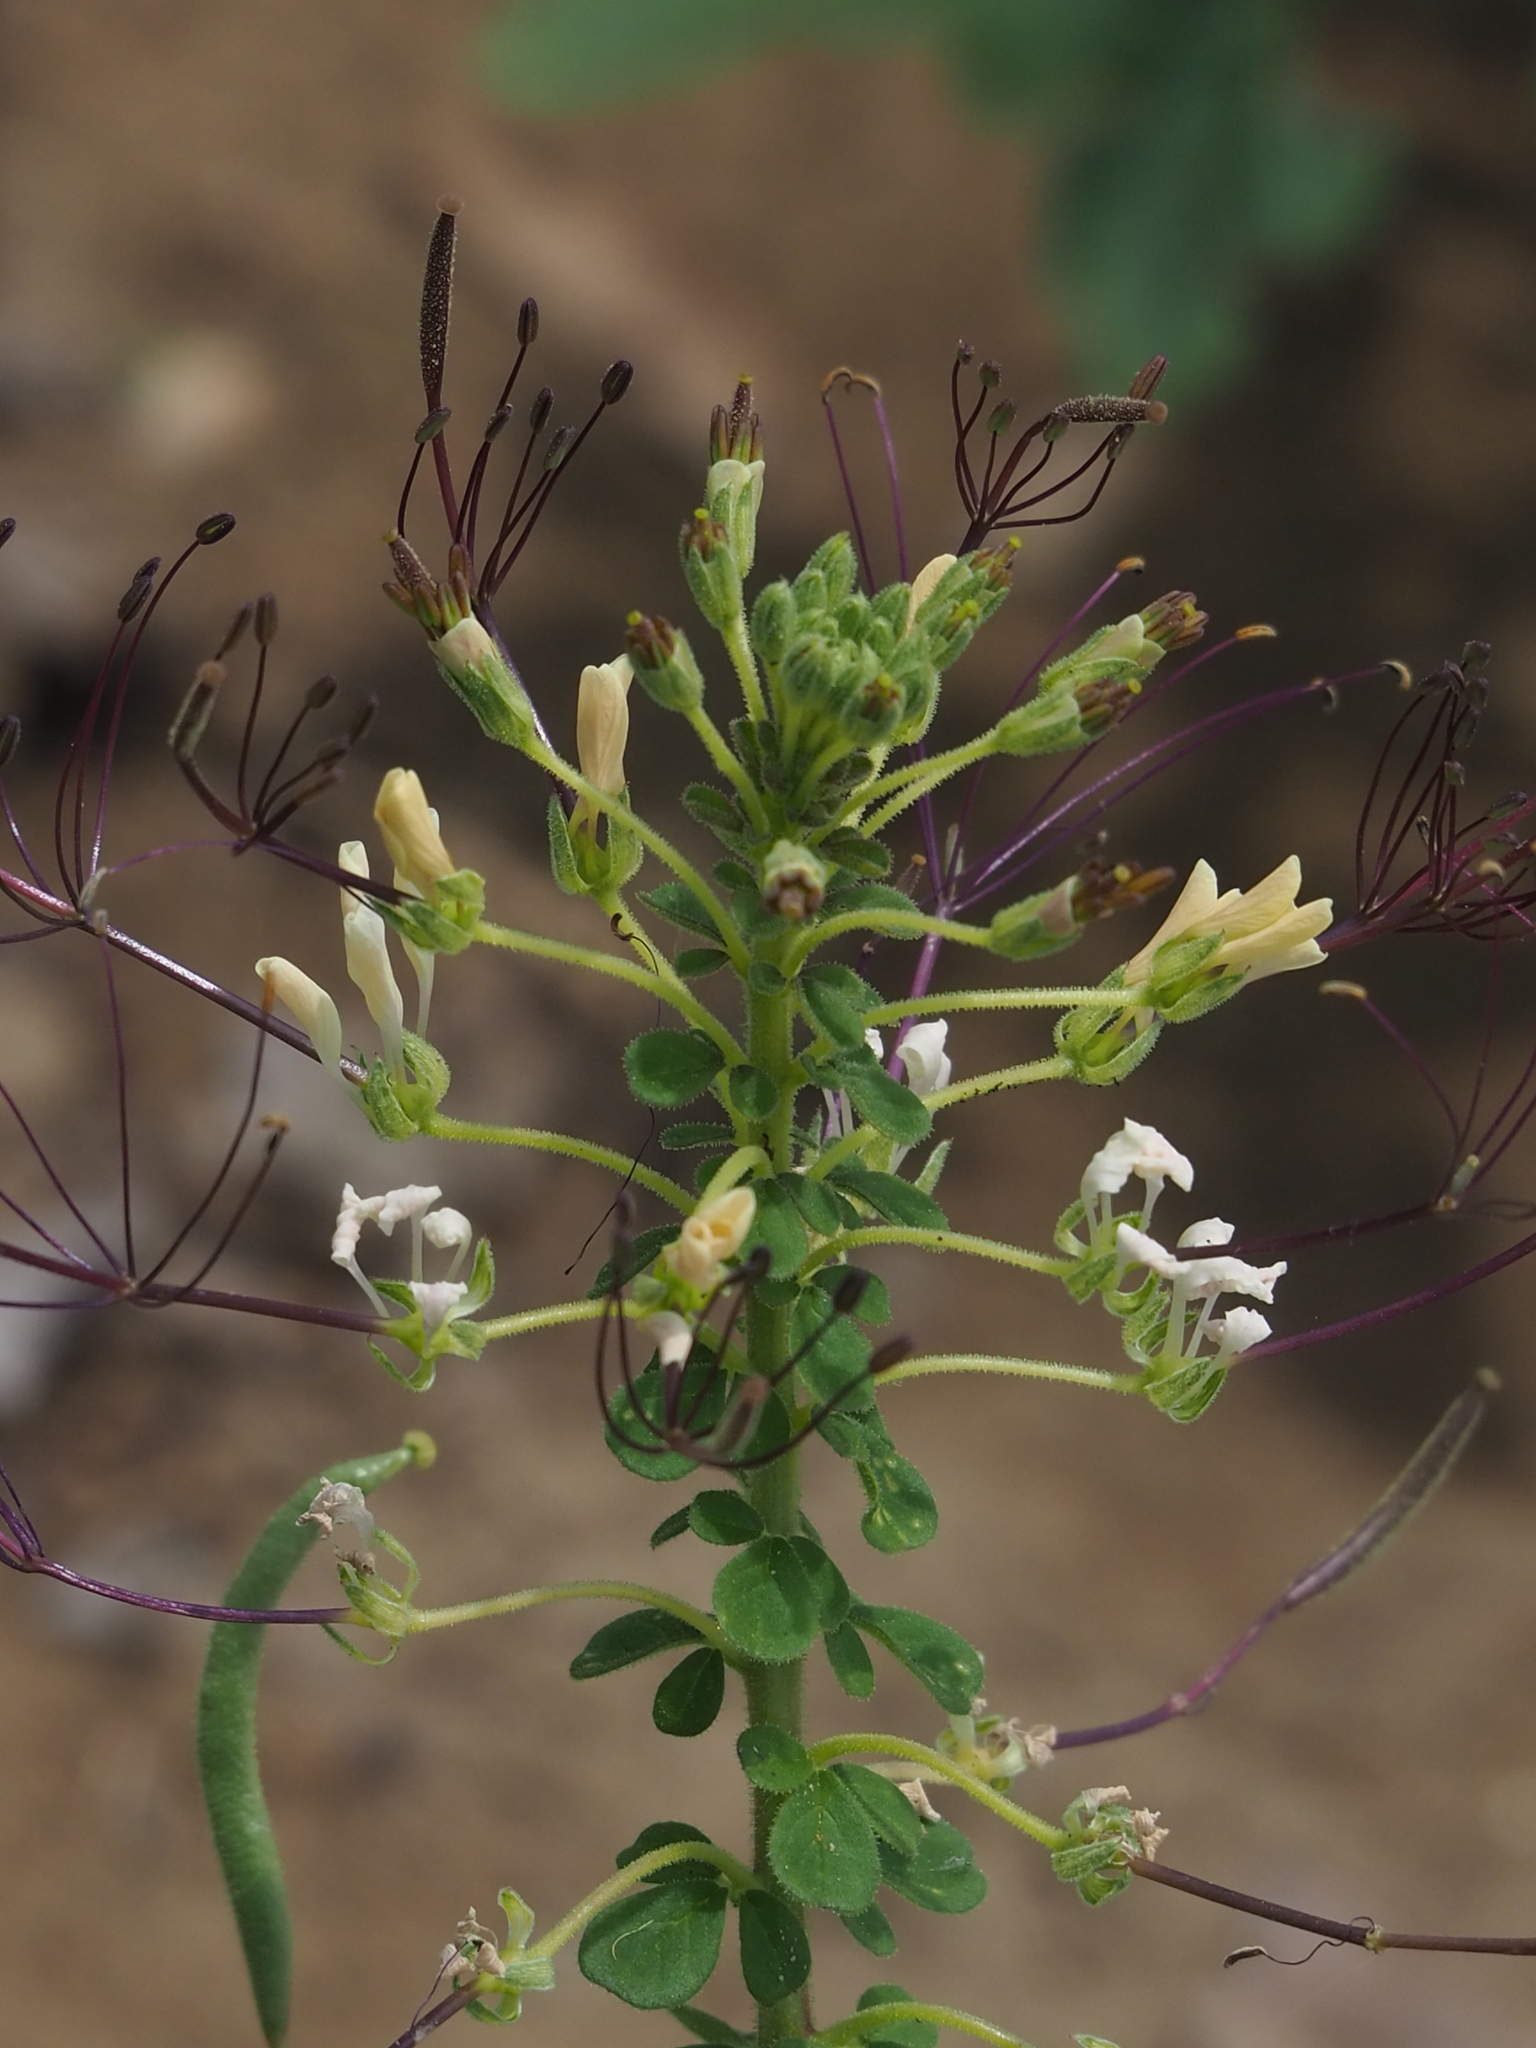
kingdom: Plantae
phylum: Tracheophyta
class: Magnoliopsida
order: Brassicales
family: Cleomaceae
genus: Gynandropsis
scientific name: Gynandropsis gynandra
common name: Spiderwisp
